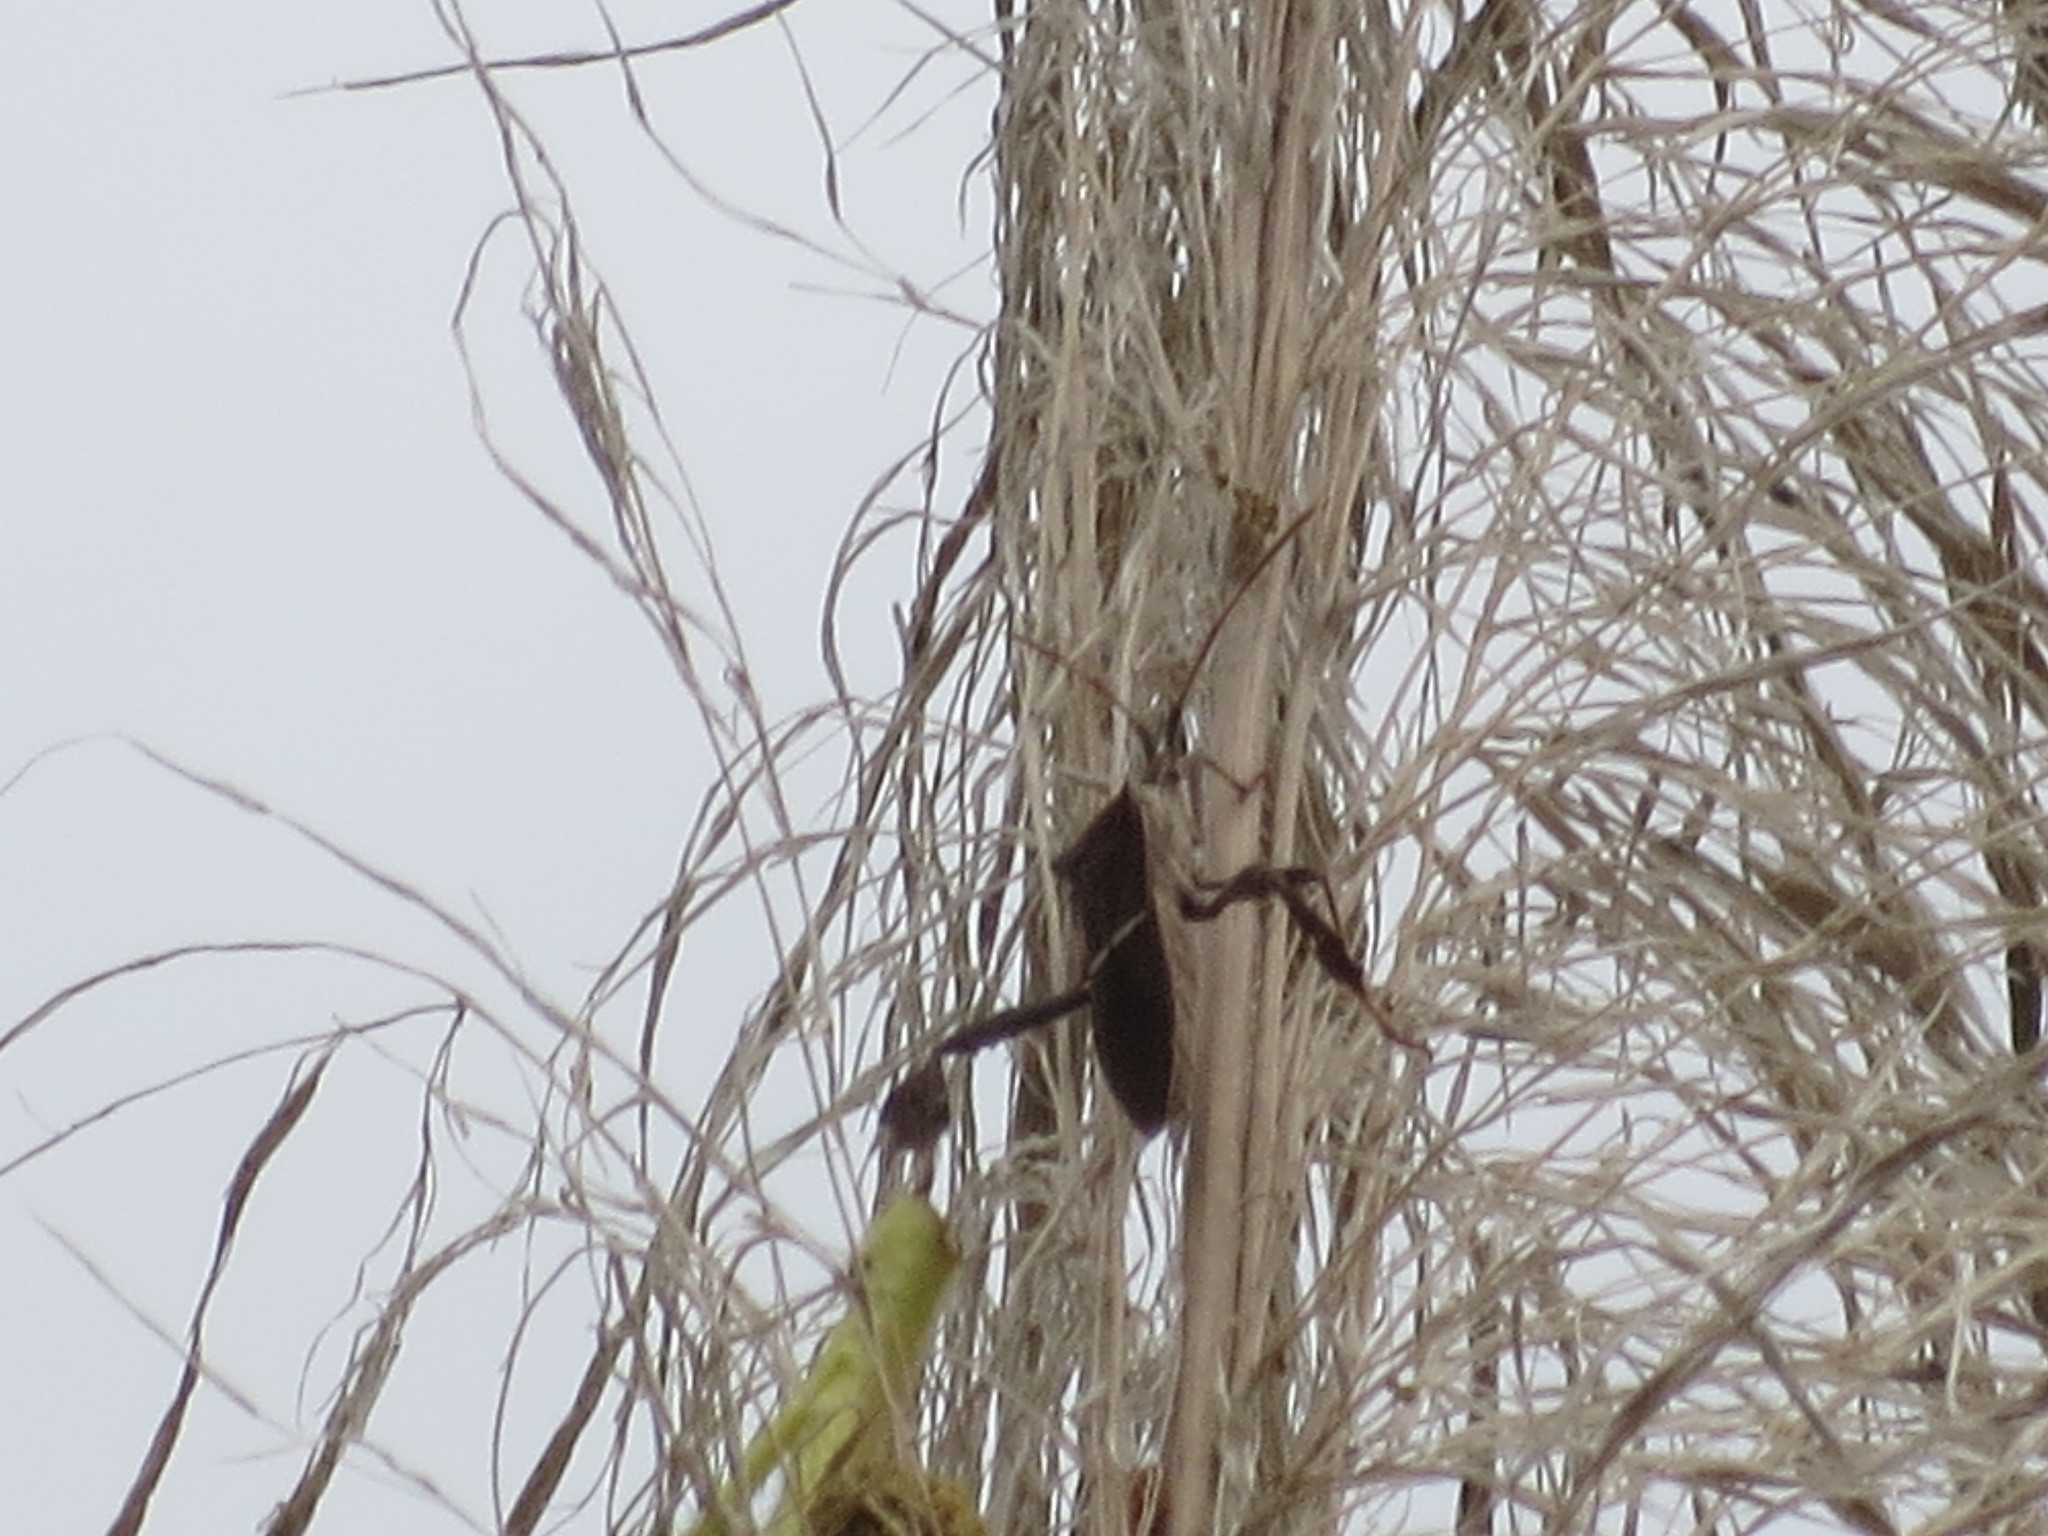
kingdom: Animalia
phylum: Arthropoda
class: Insecta
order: Hemiptera
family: Coreidae
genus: Leptoglossus
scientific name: Leptoglossus phyllopus
